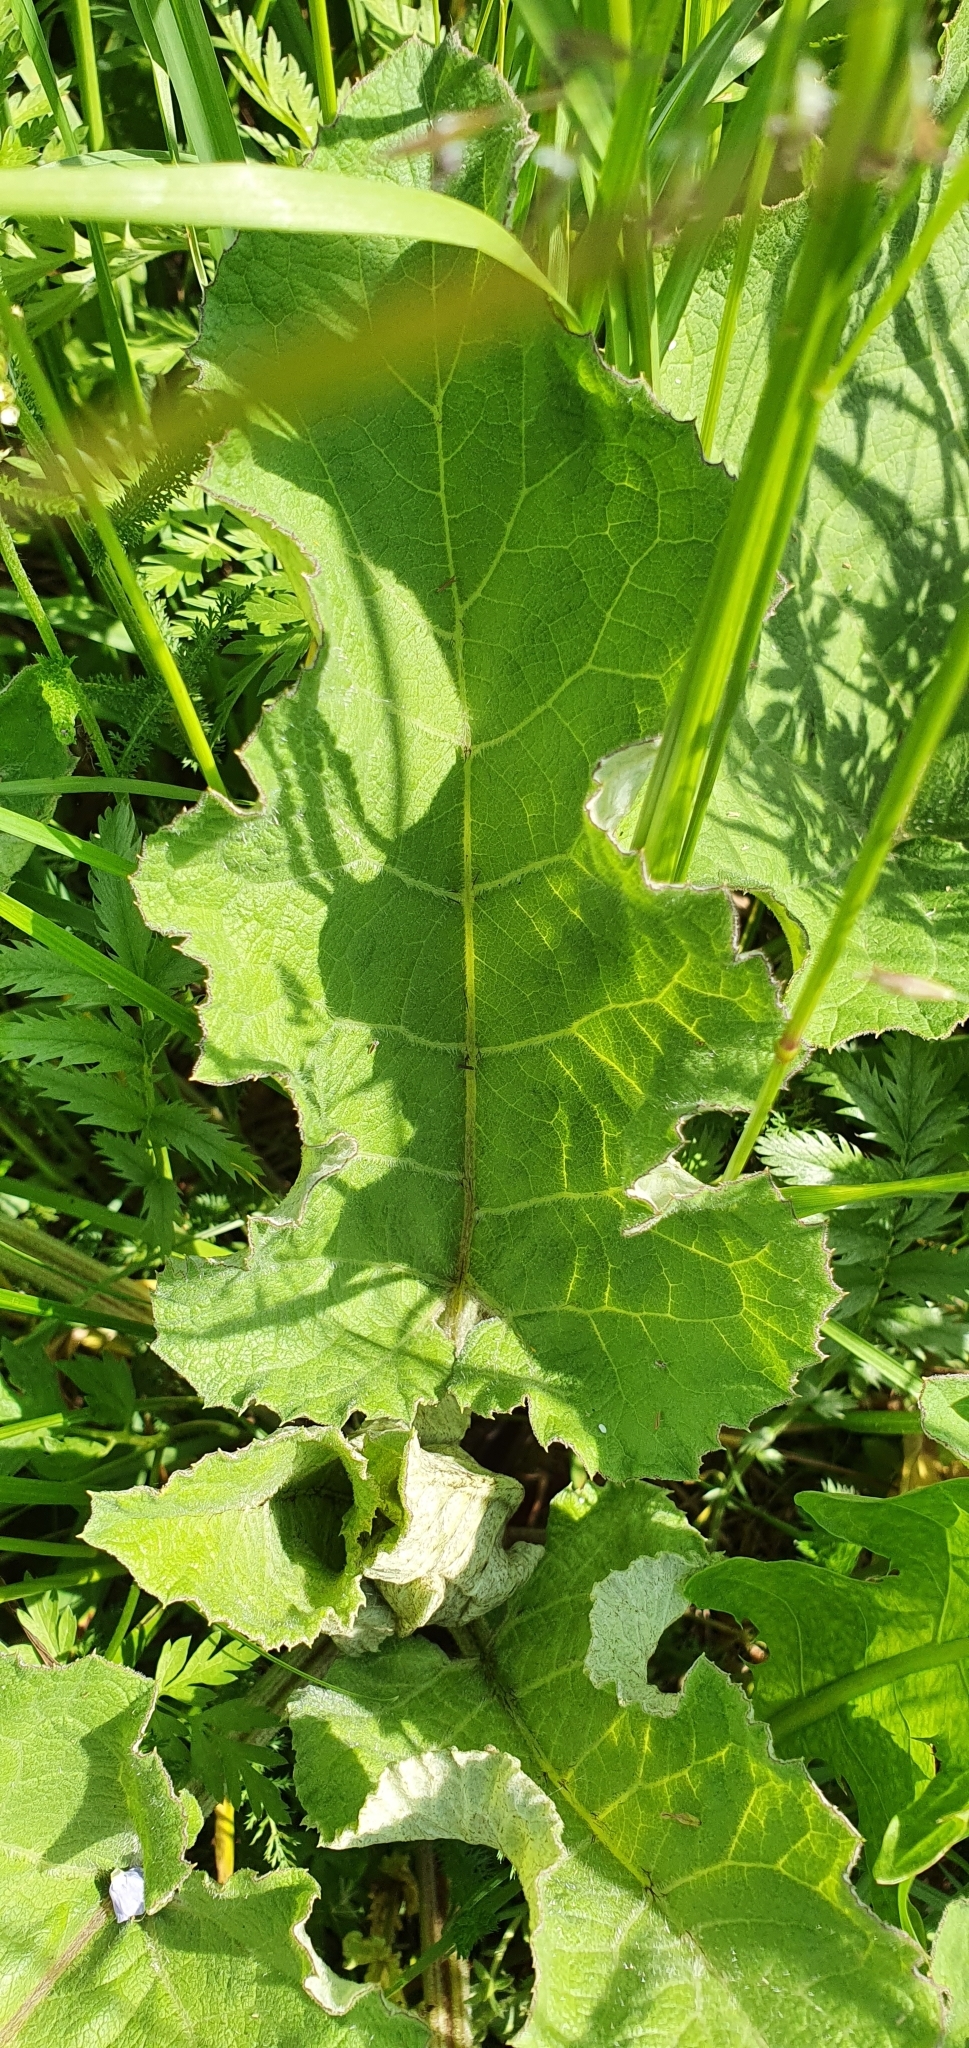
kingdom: Plantae
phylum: Tracheophyta
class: Magnoliopsida
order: Asterales
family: Asteraceae
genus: Arctium
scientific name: Arctium
